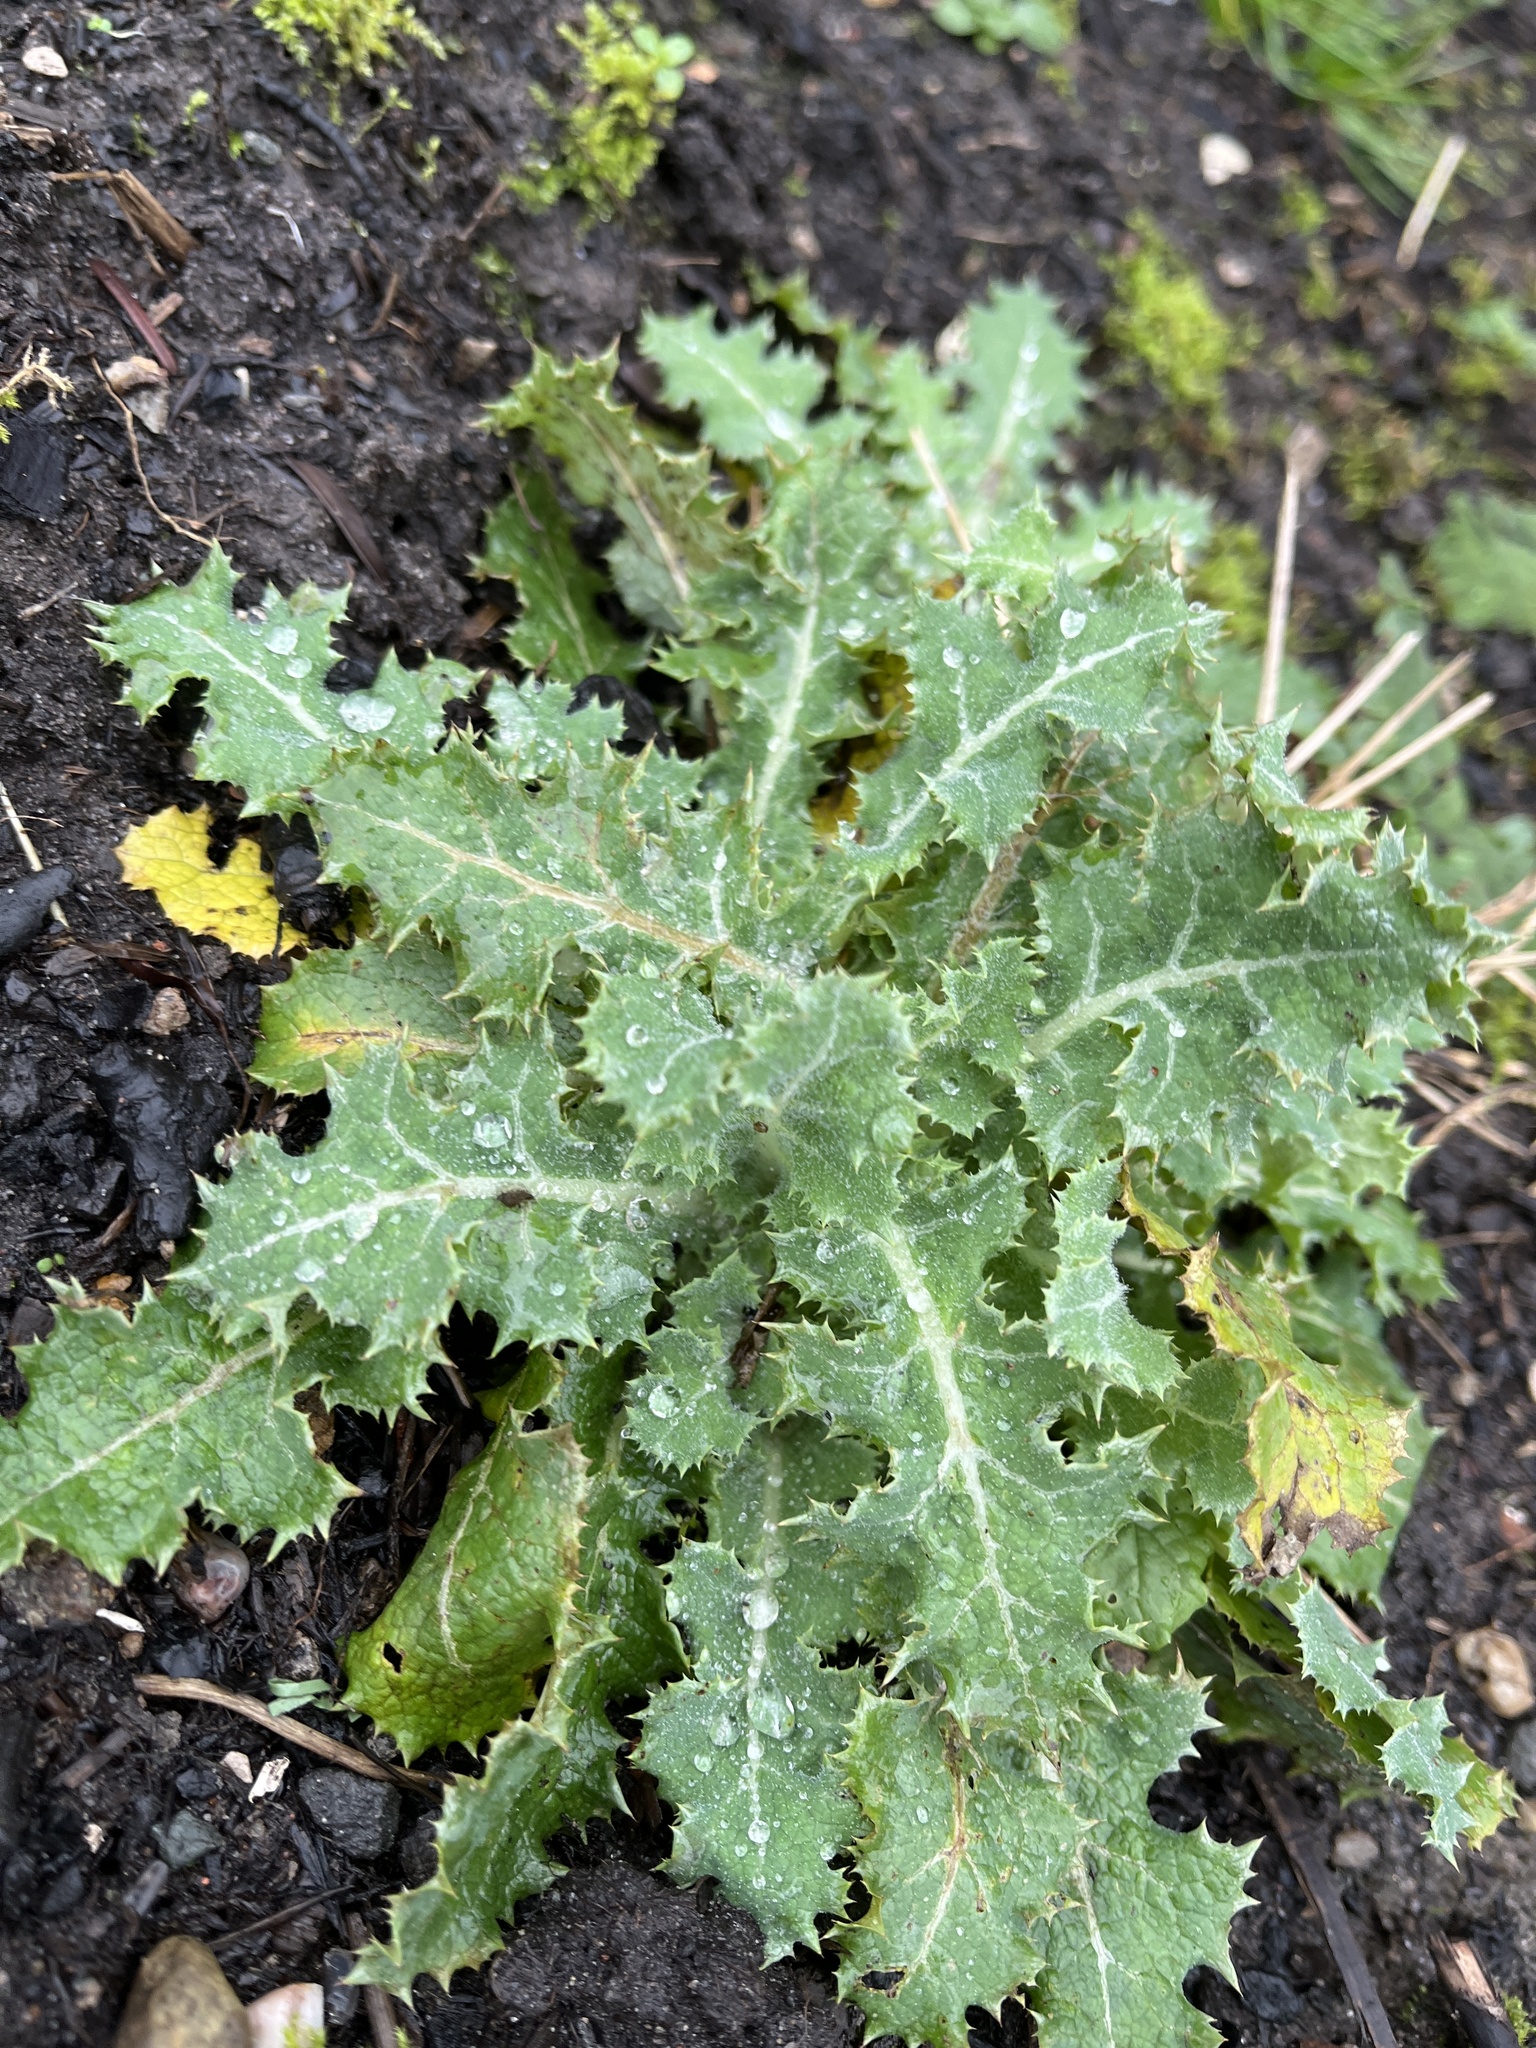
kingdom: Plantae
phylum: Tracheophyta
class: Magnoliopsida
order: Asterales
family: Asteraceae
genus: Sonchus
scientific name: Sonchus asper
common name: Prickly sow-thistle
